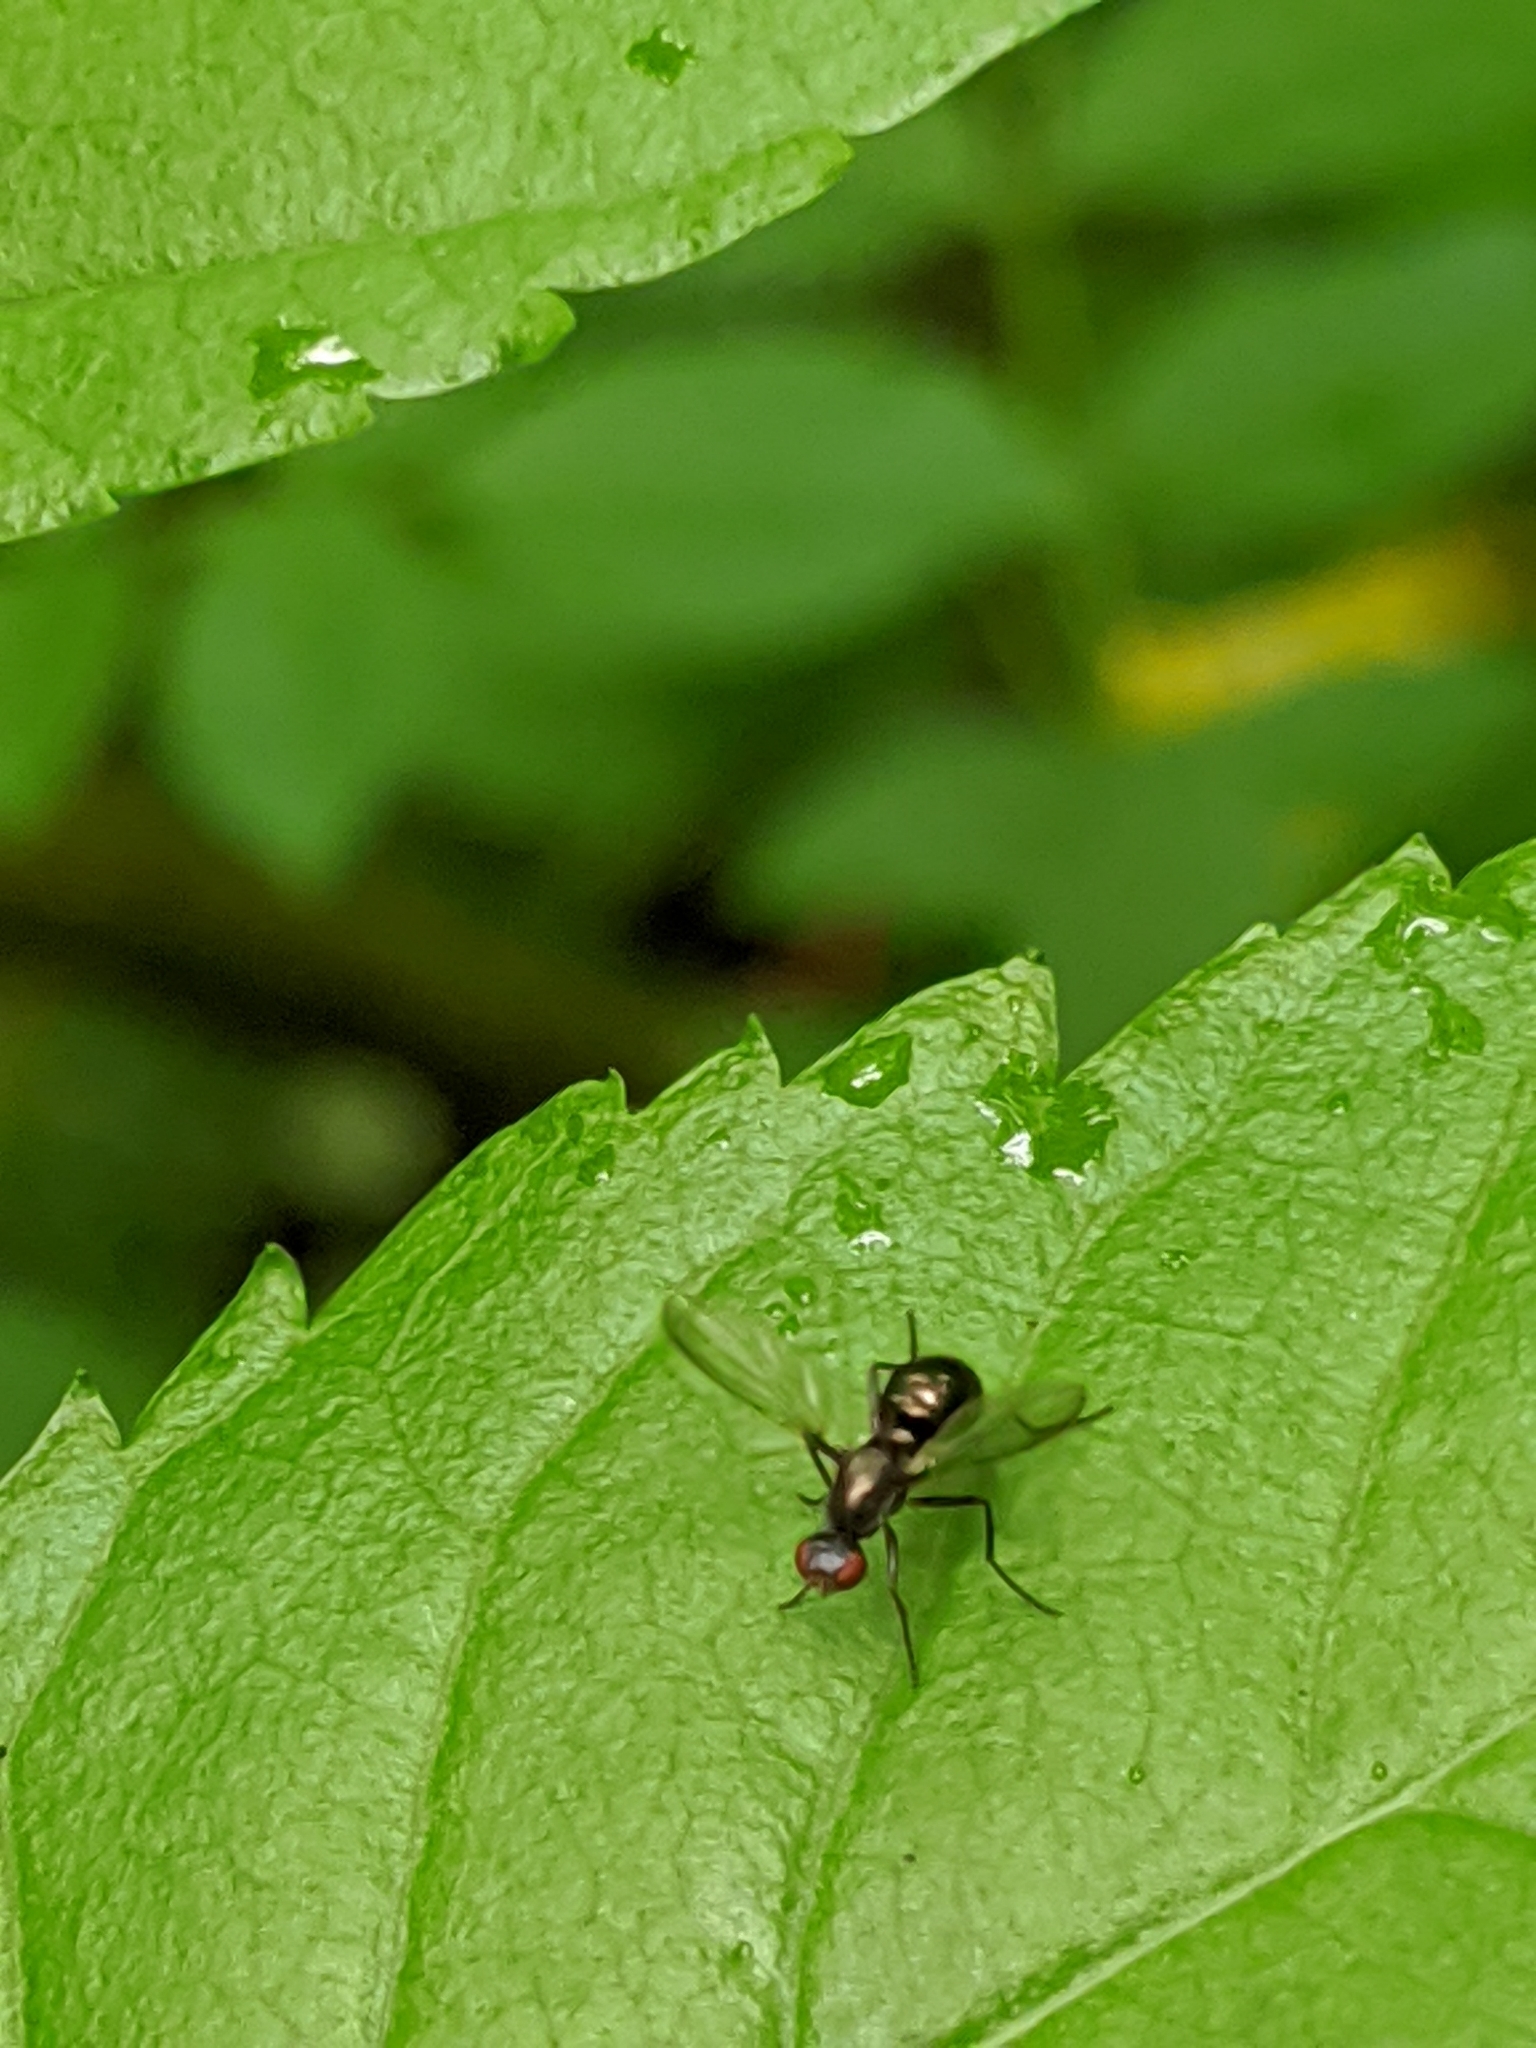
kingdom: Animalia
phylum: Arthropoda
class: Insecta
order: Diptera
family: Sepsidae
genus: Nemopoda
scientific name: Nemopoda nitidula
